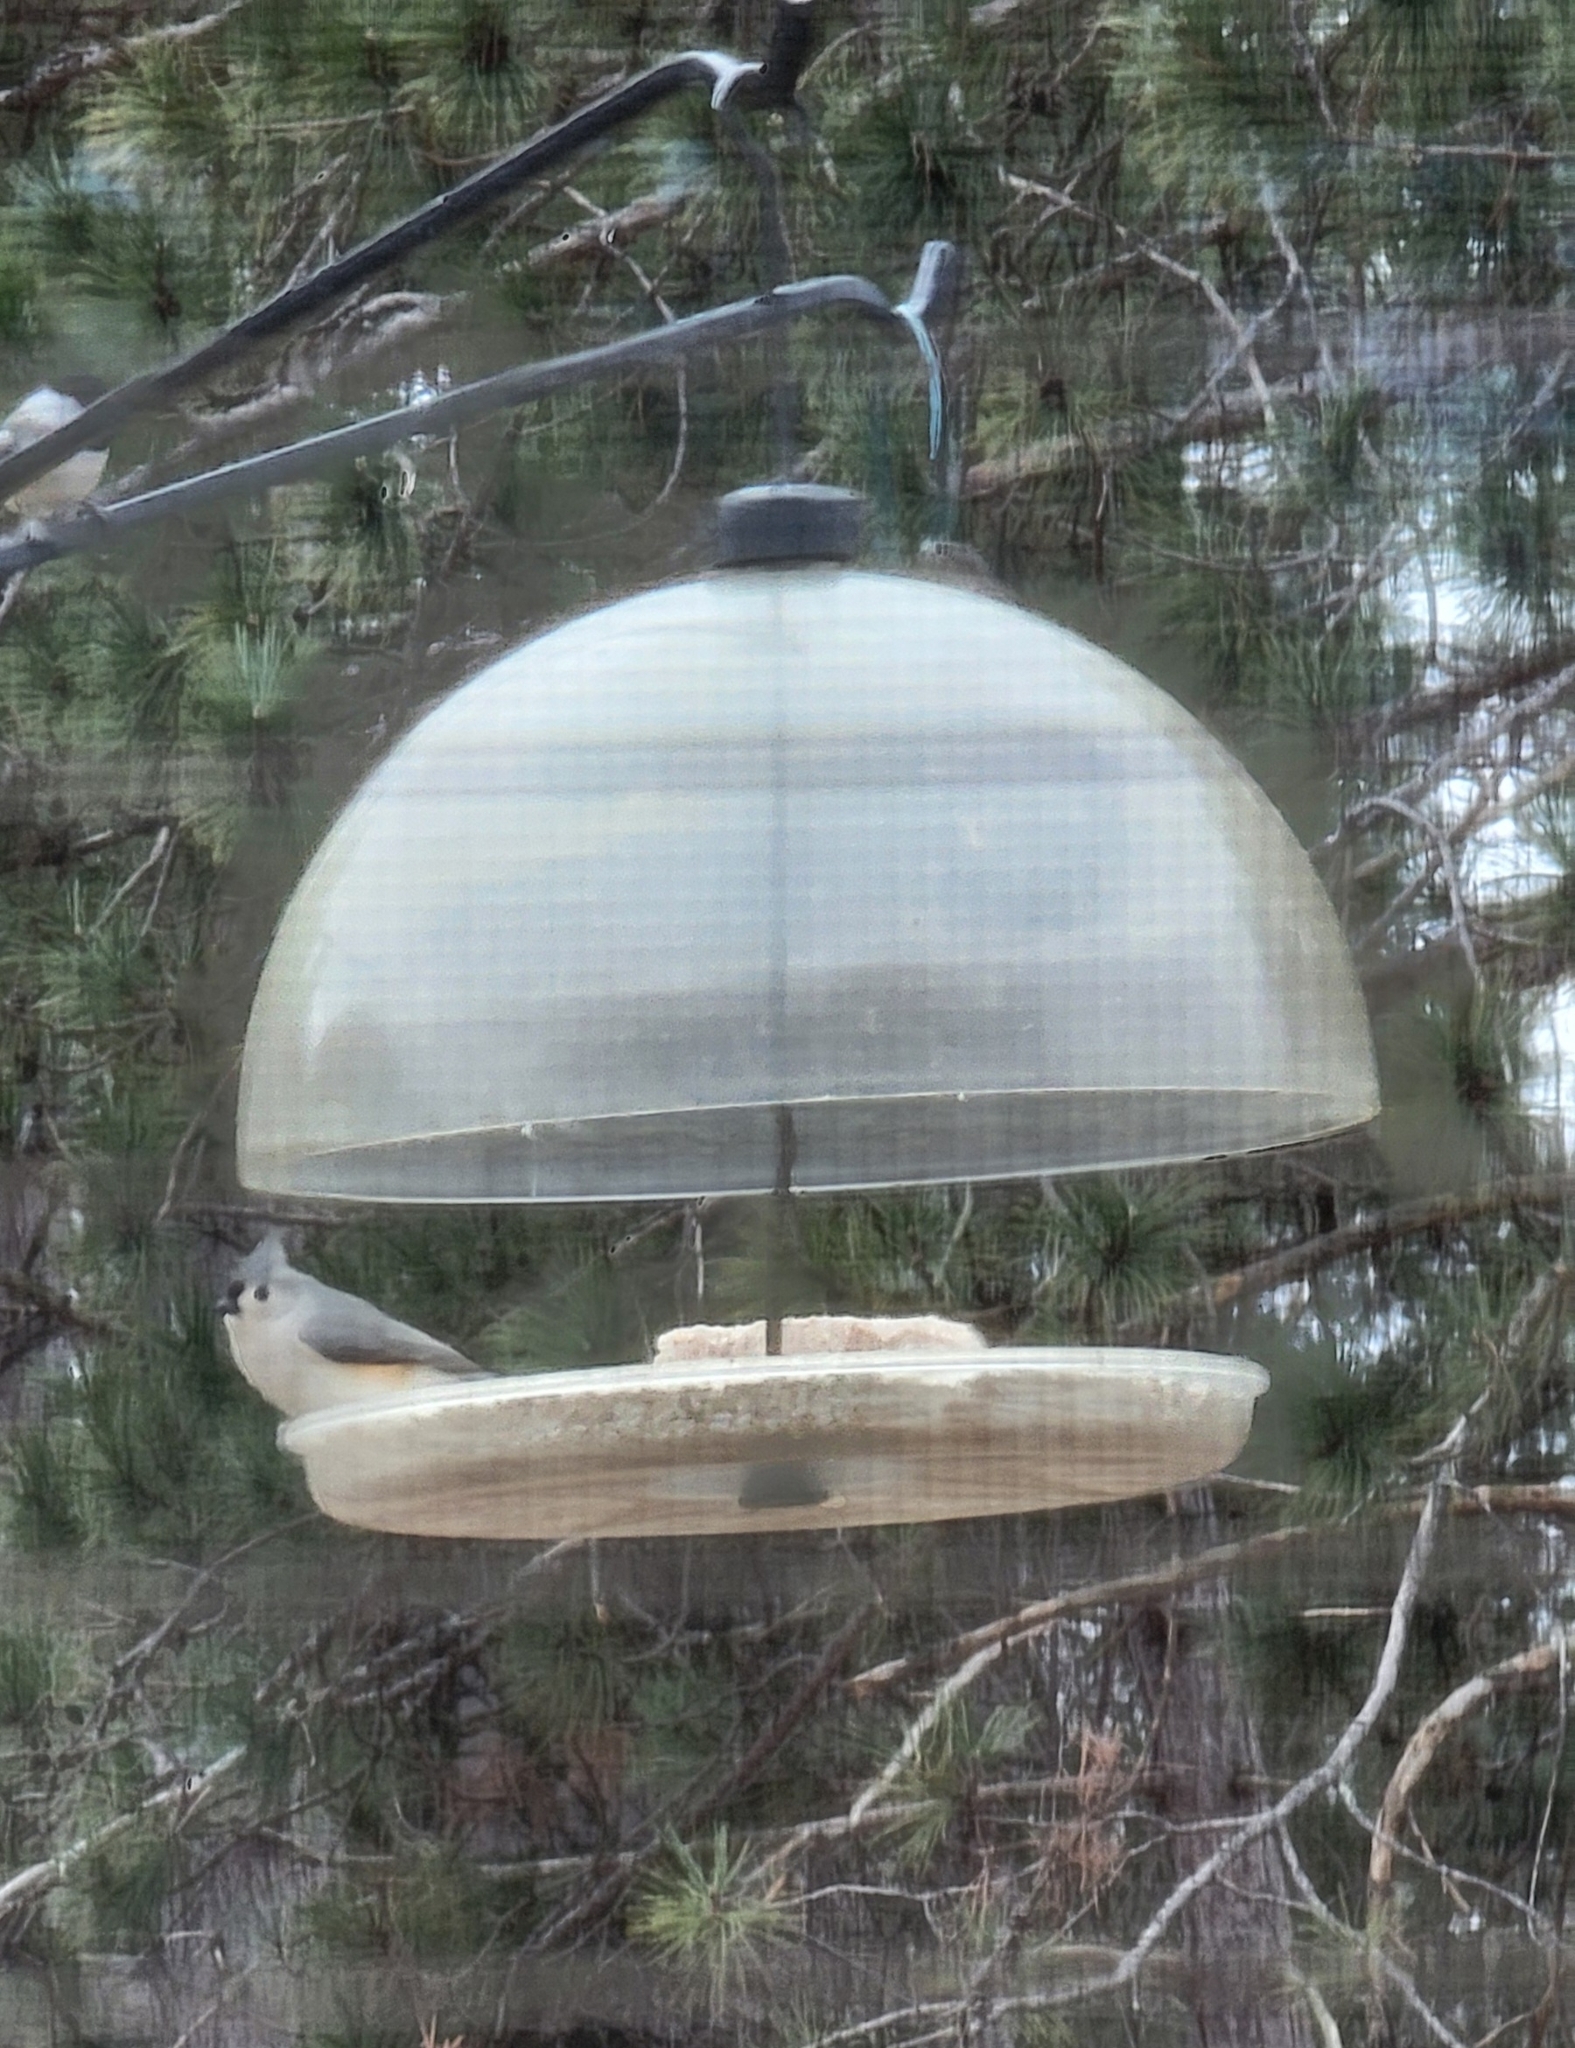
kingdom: Animalia
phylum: Chordata
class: Aves
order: Passeriformes
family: Paridae
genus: Baeolophus
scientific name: Baeolophus bicolor
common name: Tufted titmouse
